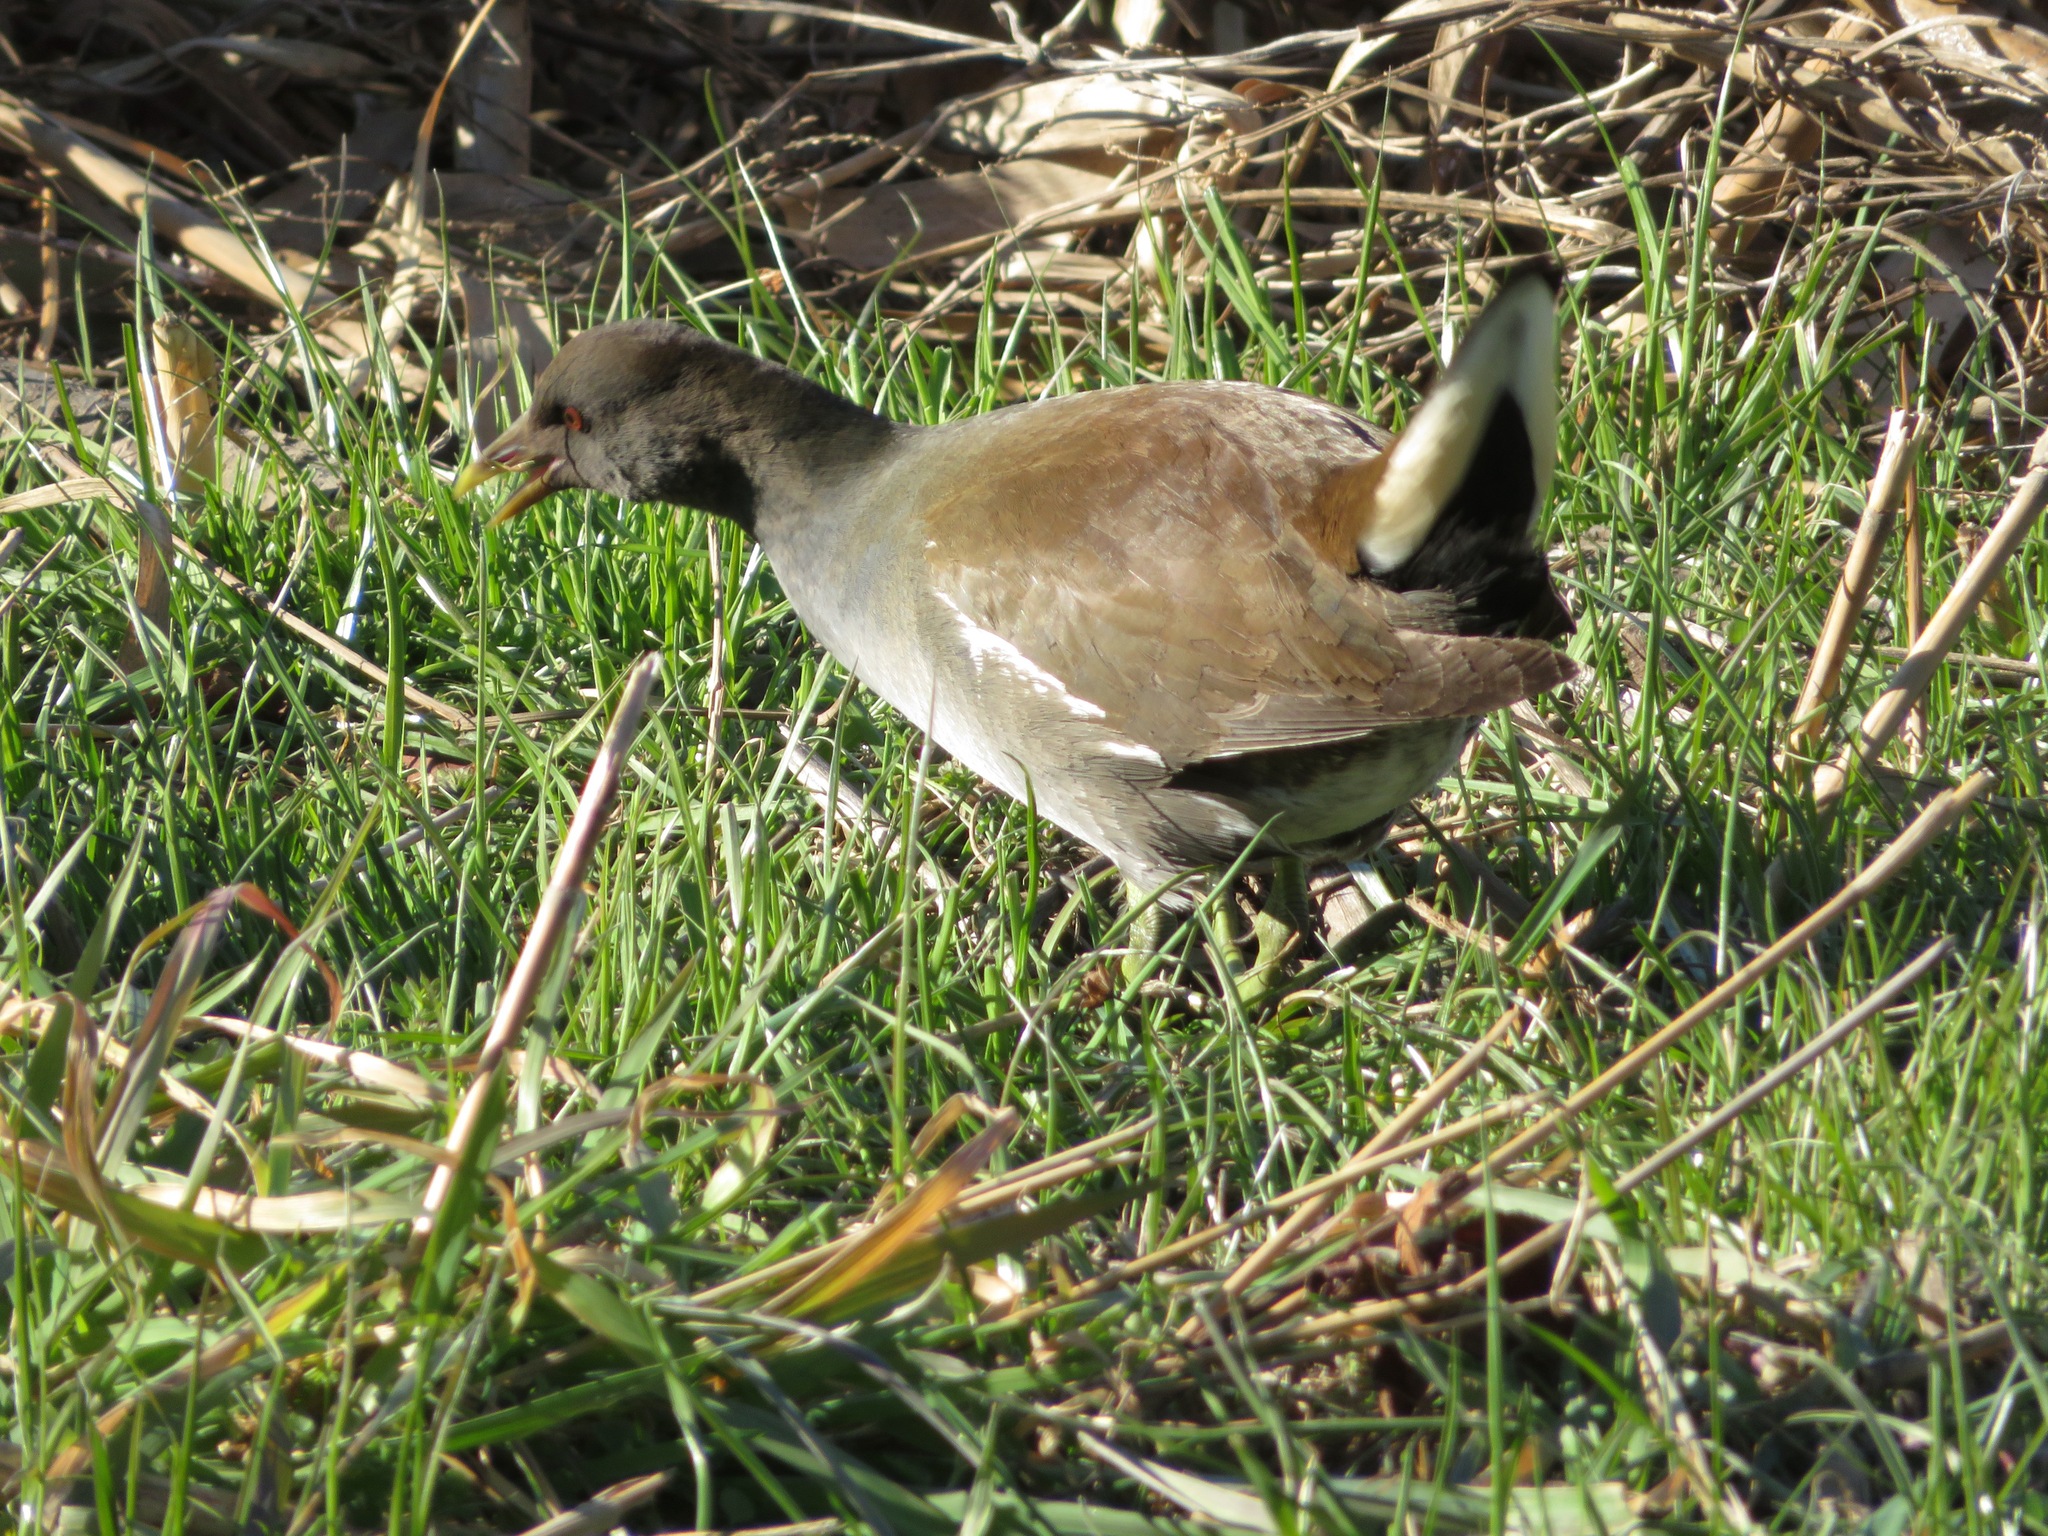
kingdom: Animalia
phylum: Chordata
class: Aves
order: Gruiformes
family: Rallidae
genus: Gallinula
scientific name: Gallinula chloropus
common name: Common moorhen
